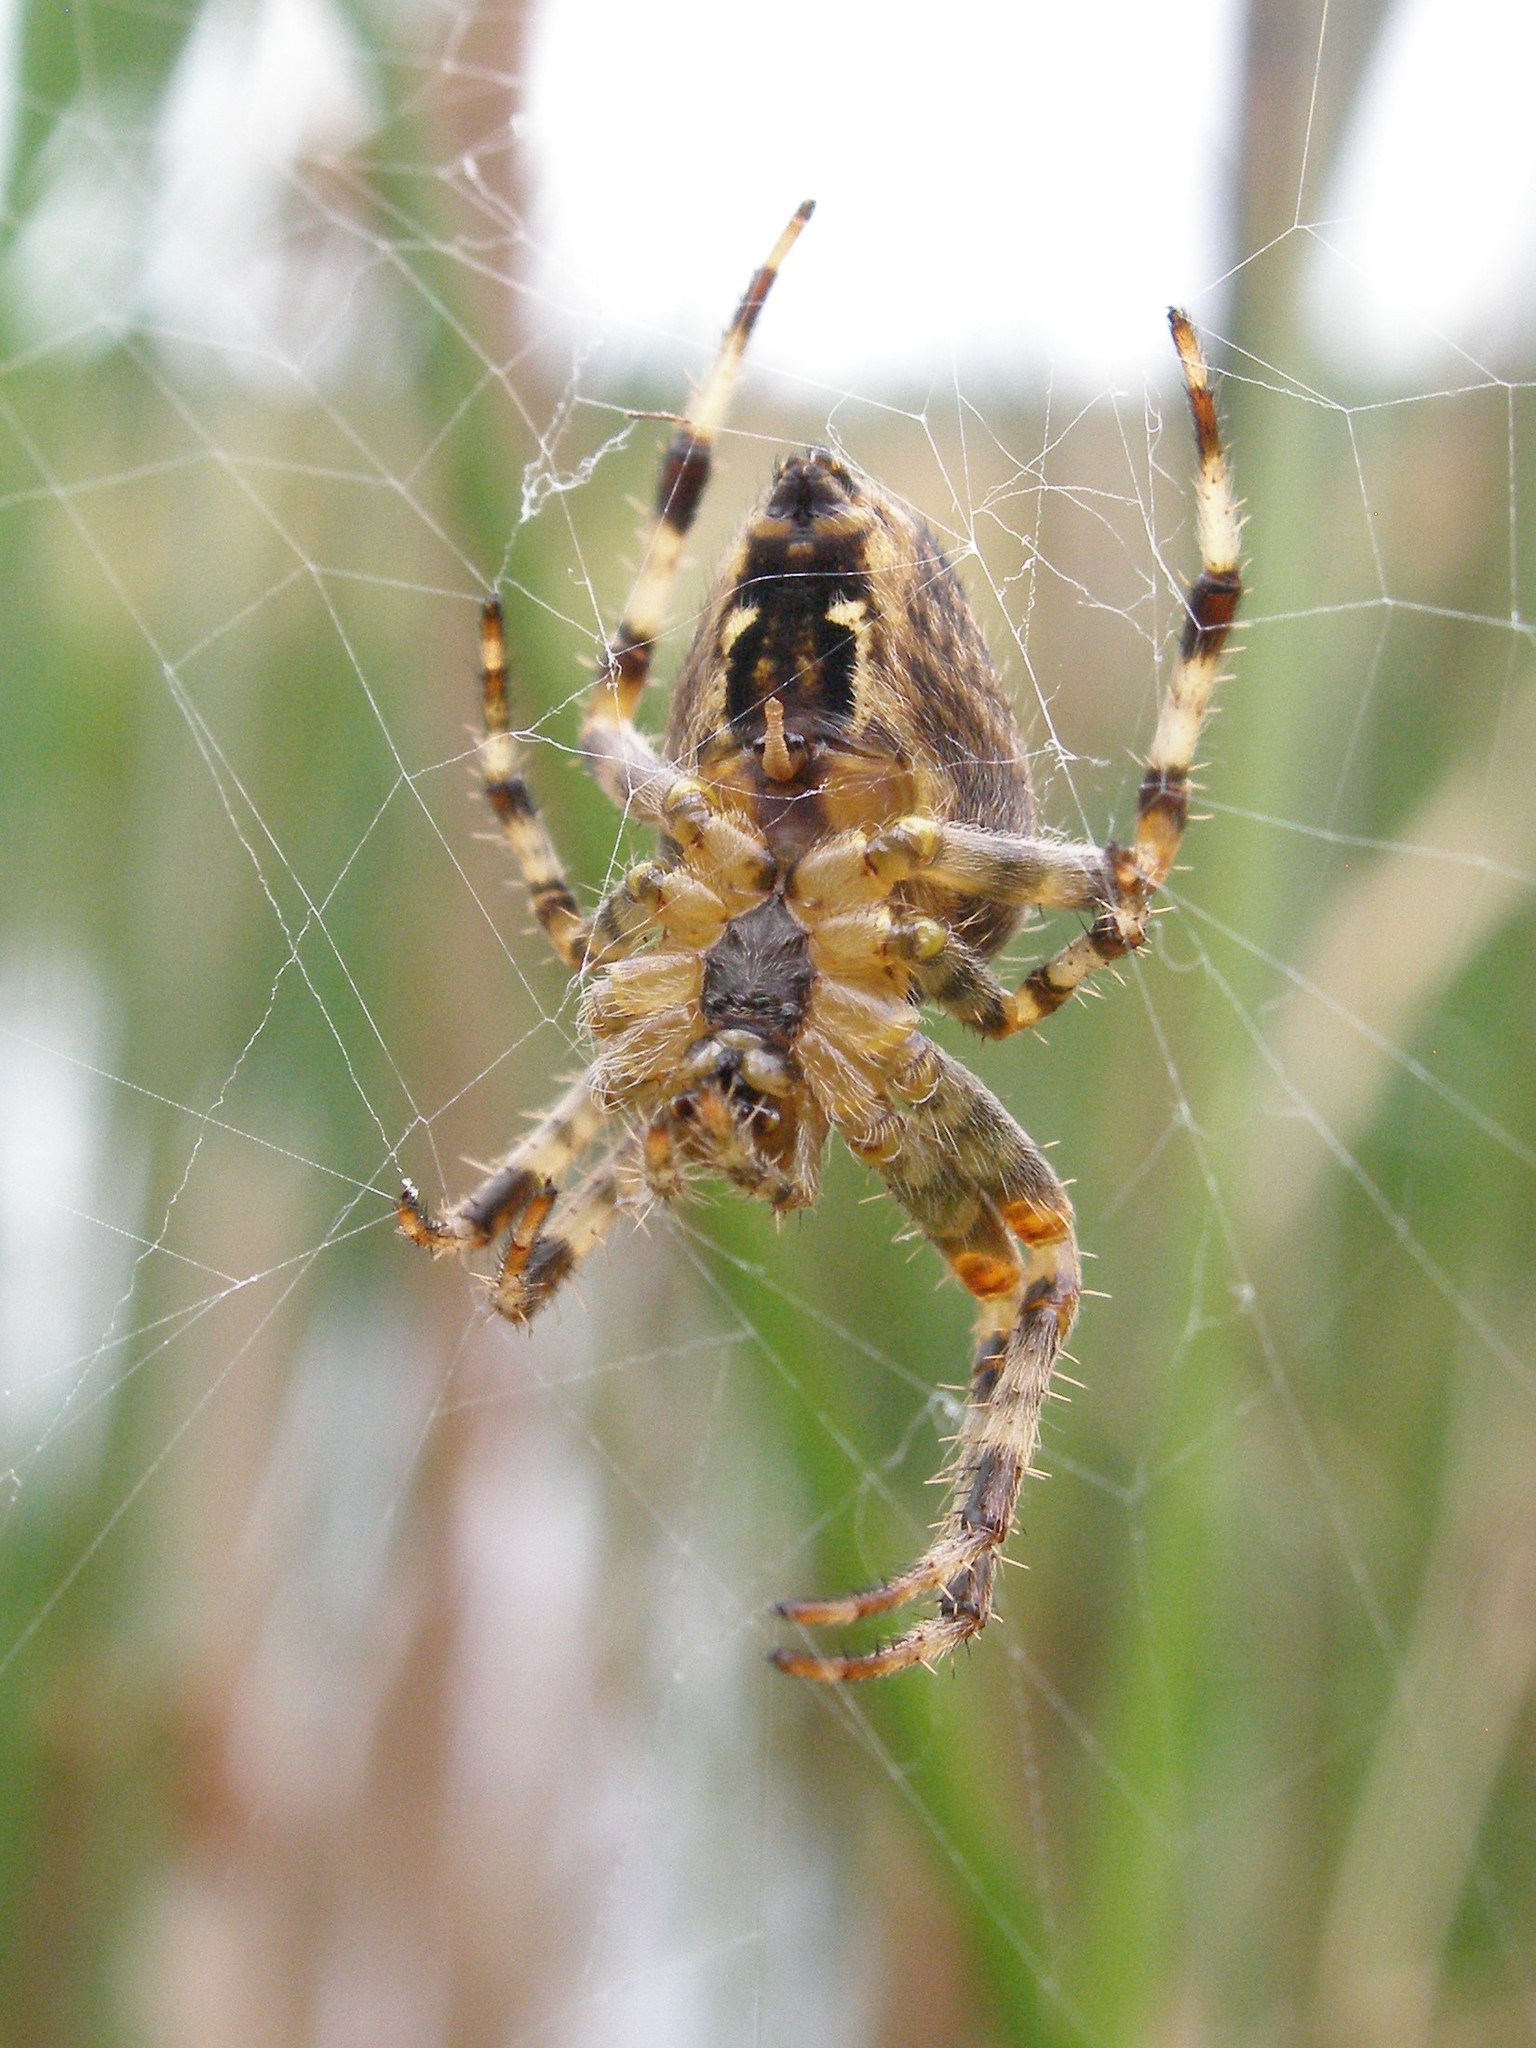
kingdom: Animalia
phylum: Arthropoda
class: Arachnida
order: Araneae
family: Araneidae
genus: Araneus
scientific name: Araneus diadematus
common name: Cross orbweaver
